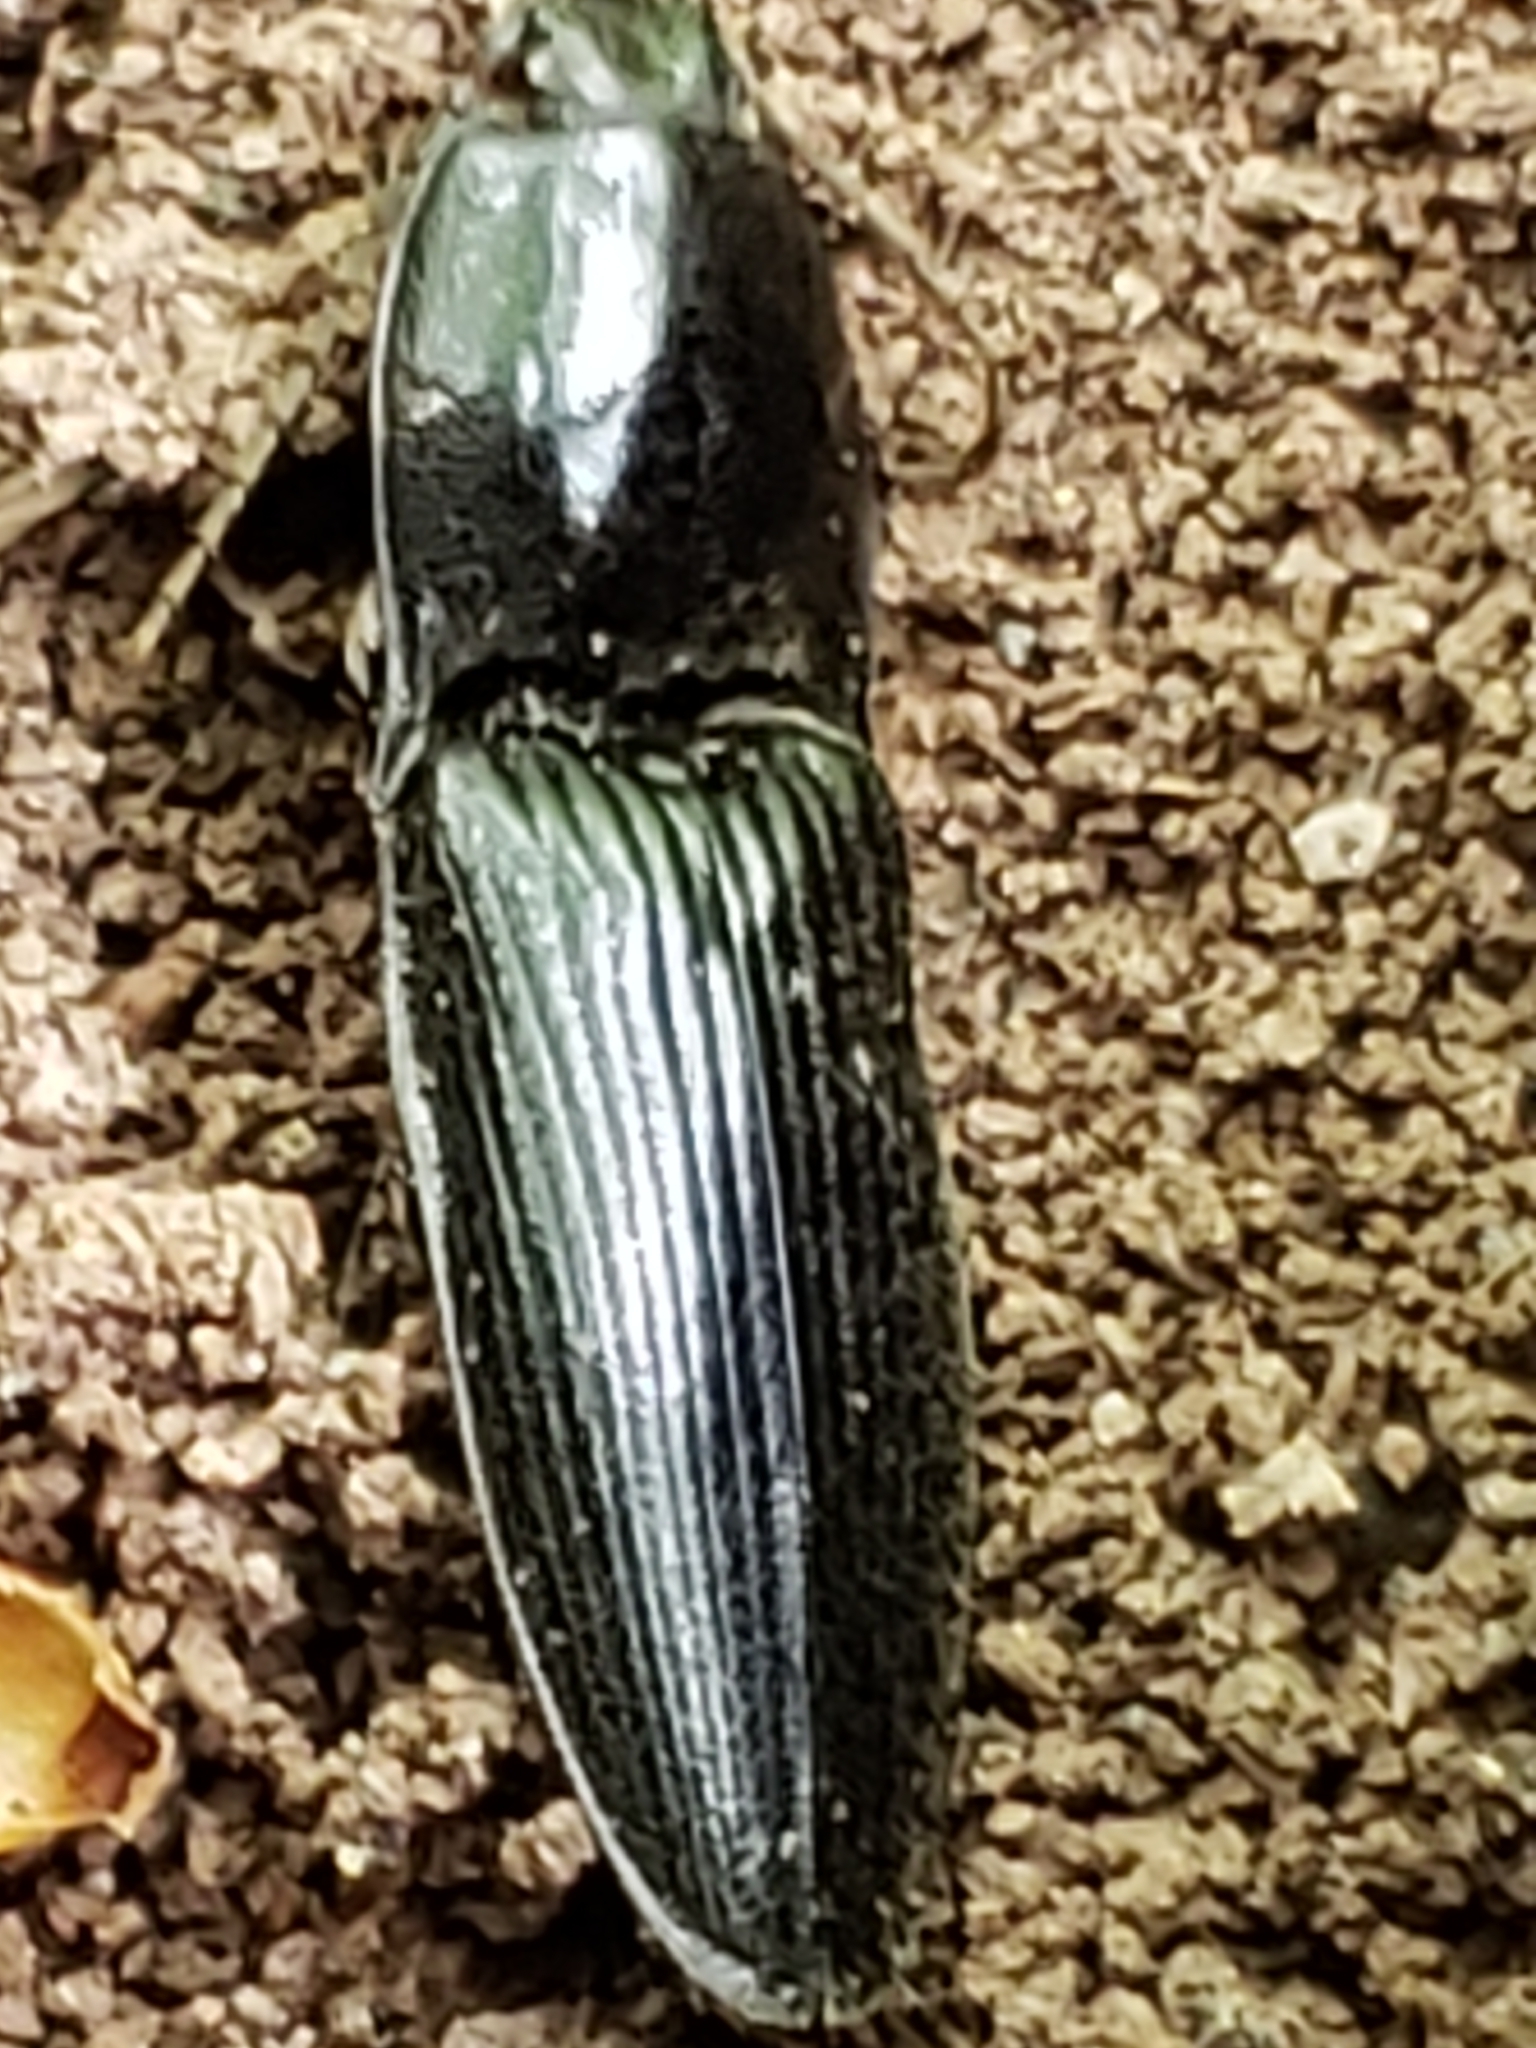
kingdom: Animalia
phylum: Arthropoda
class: Insecta
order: Coleoptera
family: Elateridae
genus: Neopristilophus
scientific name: Neopristilophus
